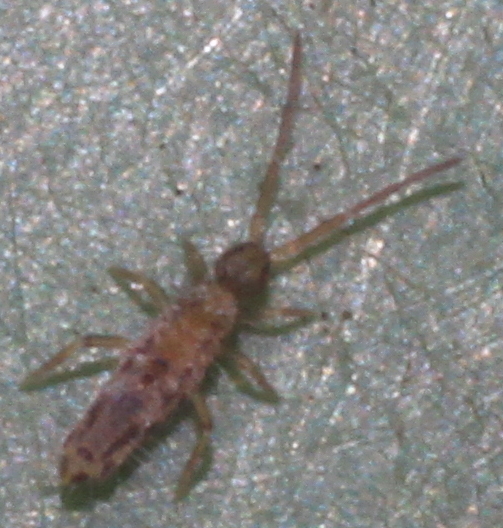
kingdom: Animalia
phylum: Arthropoda
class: Collembola
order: Entomobryomorpha
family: Entomobryidae
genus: Entomobrya
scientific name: Entomobrya intermedia
